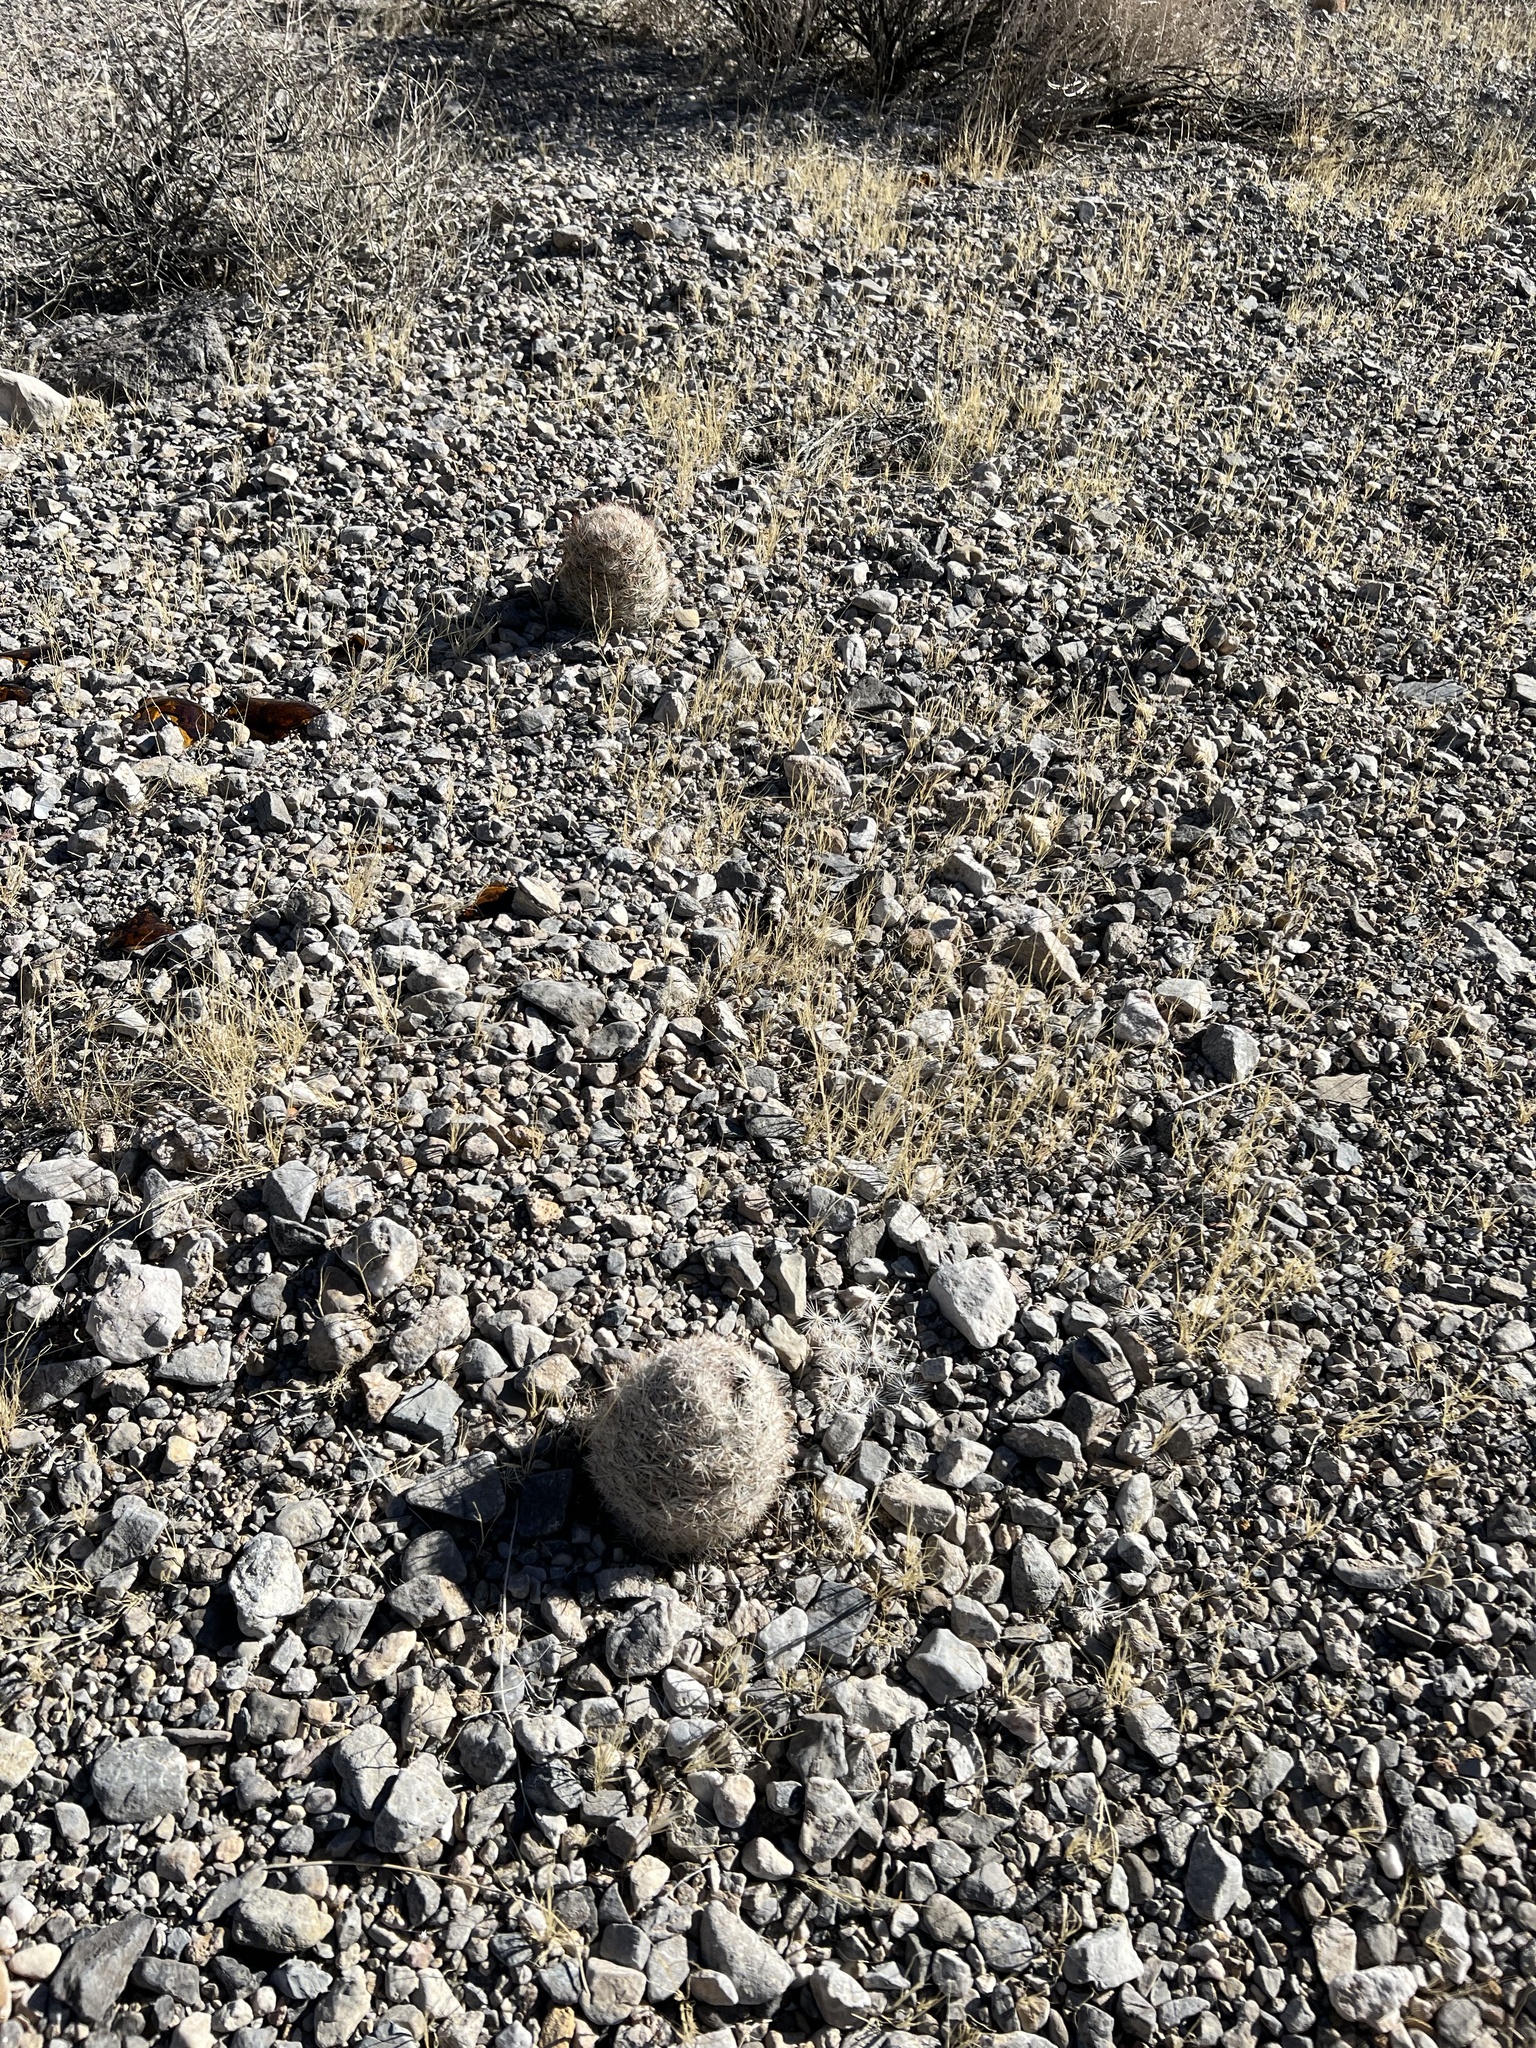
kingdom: Plantae
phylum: Tracheophyta
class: Magnoliopsida
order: Caryophyllales
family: Cactaceae
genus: Pelecyphora
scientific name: Pelecyphora dasyacantha
